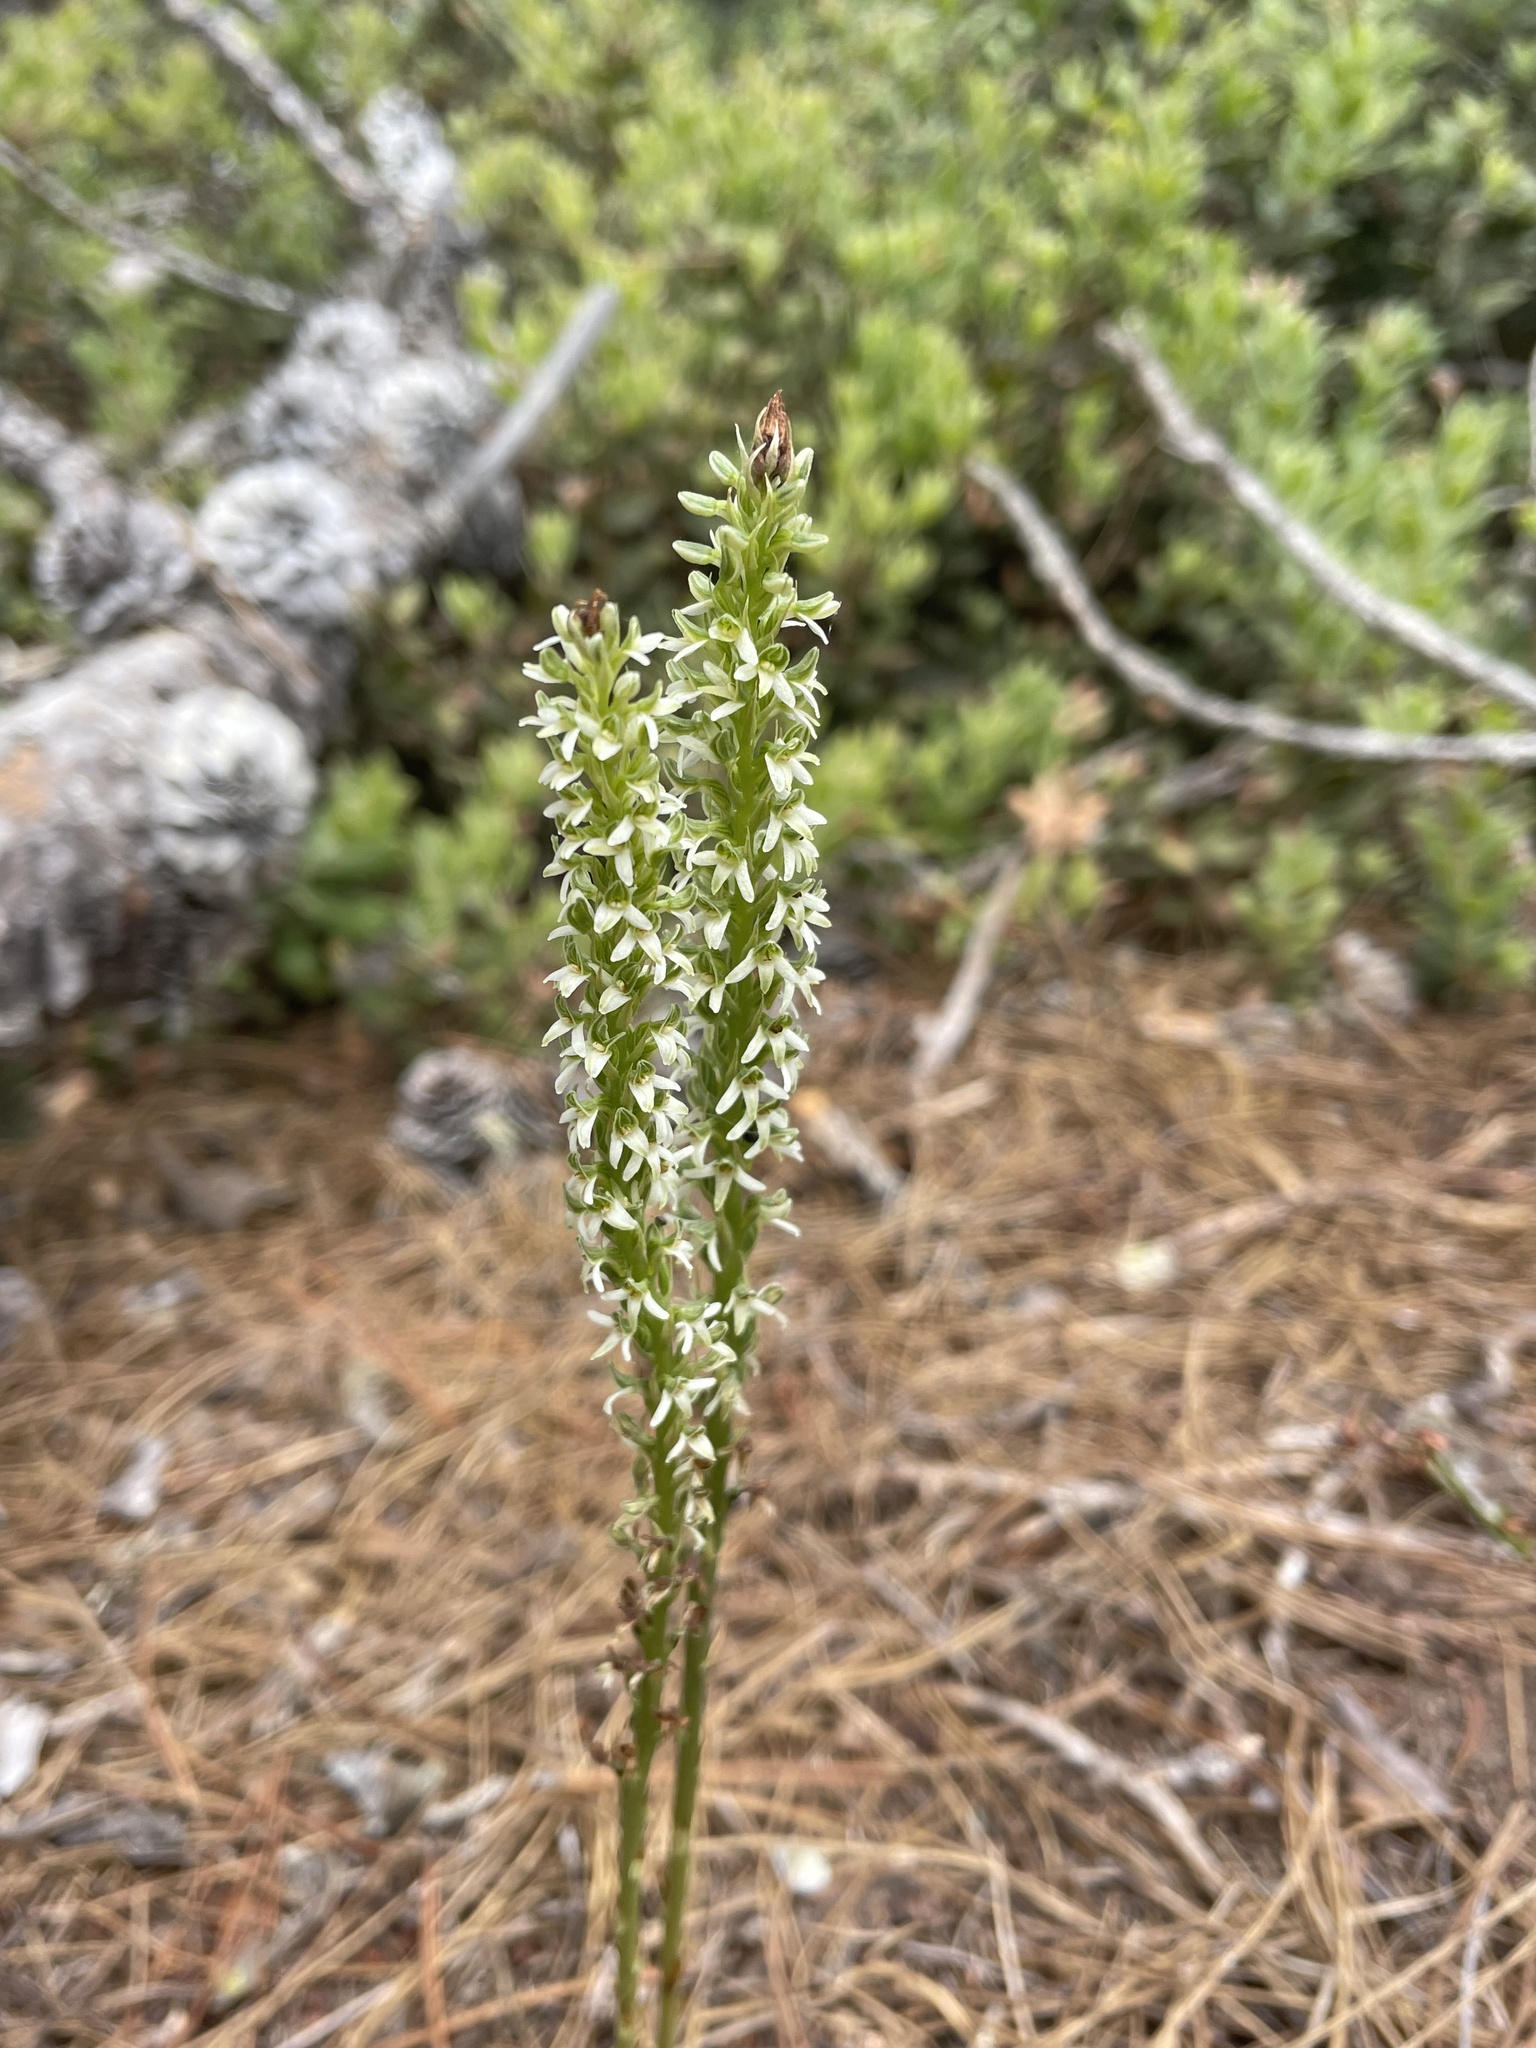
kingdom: Plantae
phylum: Tracheophyta
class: Liliopsida
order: Asparagales
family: Orchidaceae
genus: Platanthera
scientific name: Platanthera yadonii
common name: Yadon’s piperia
